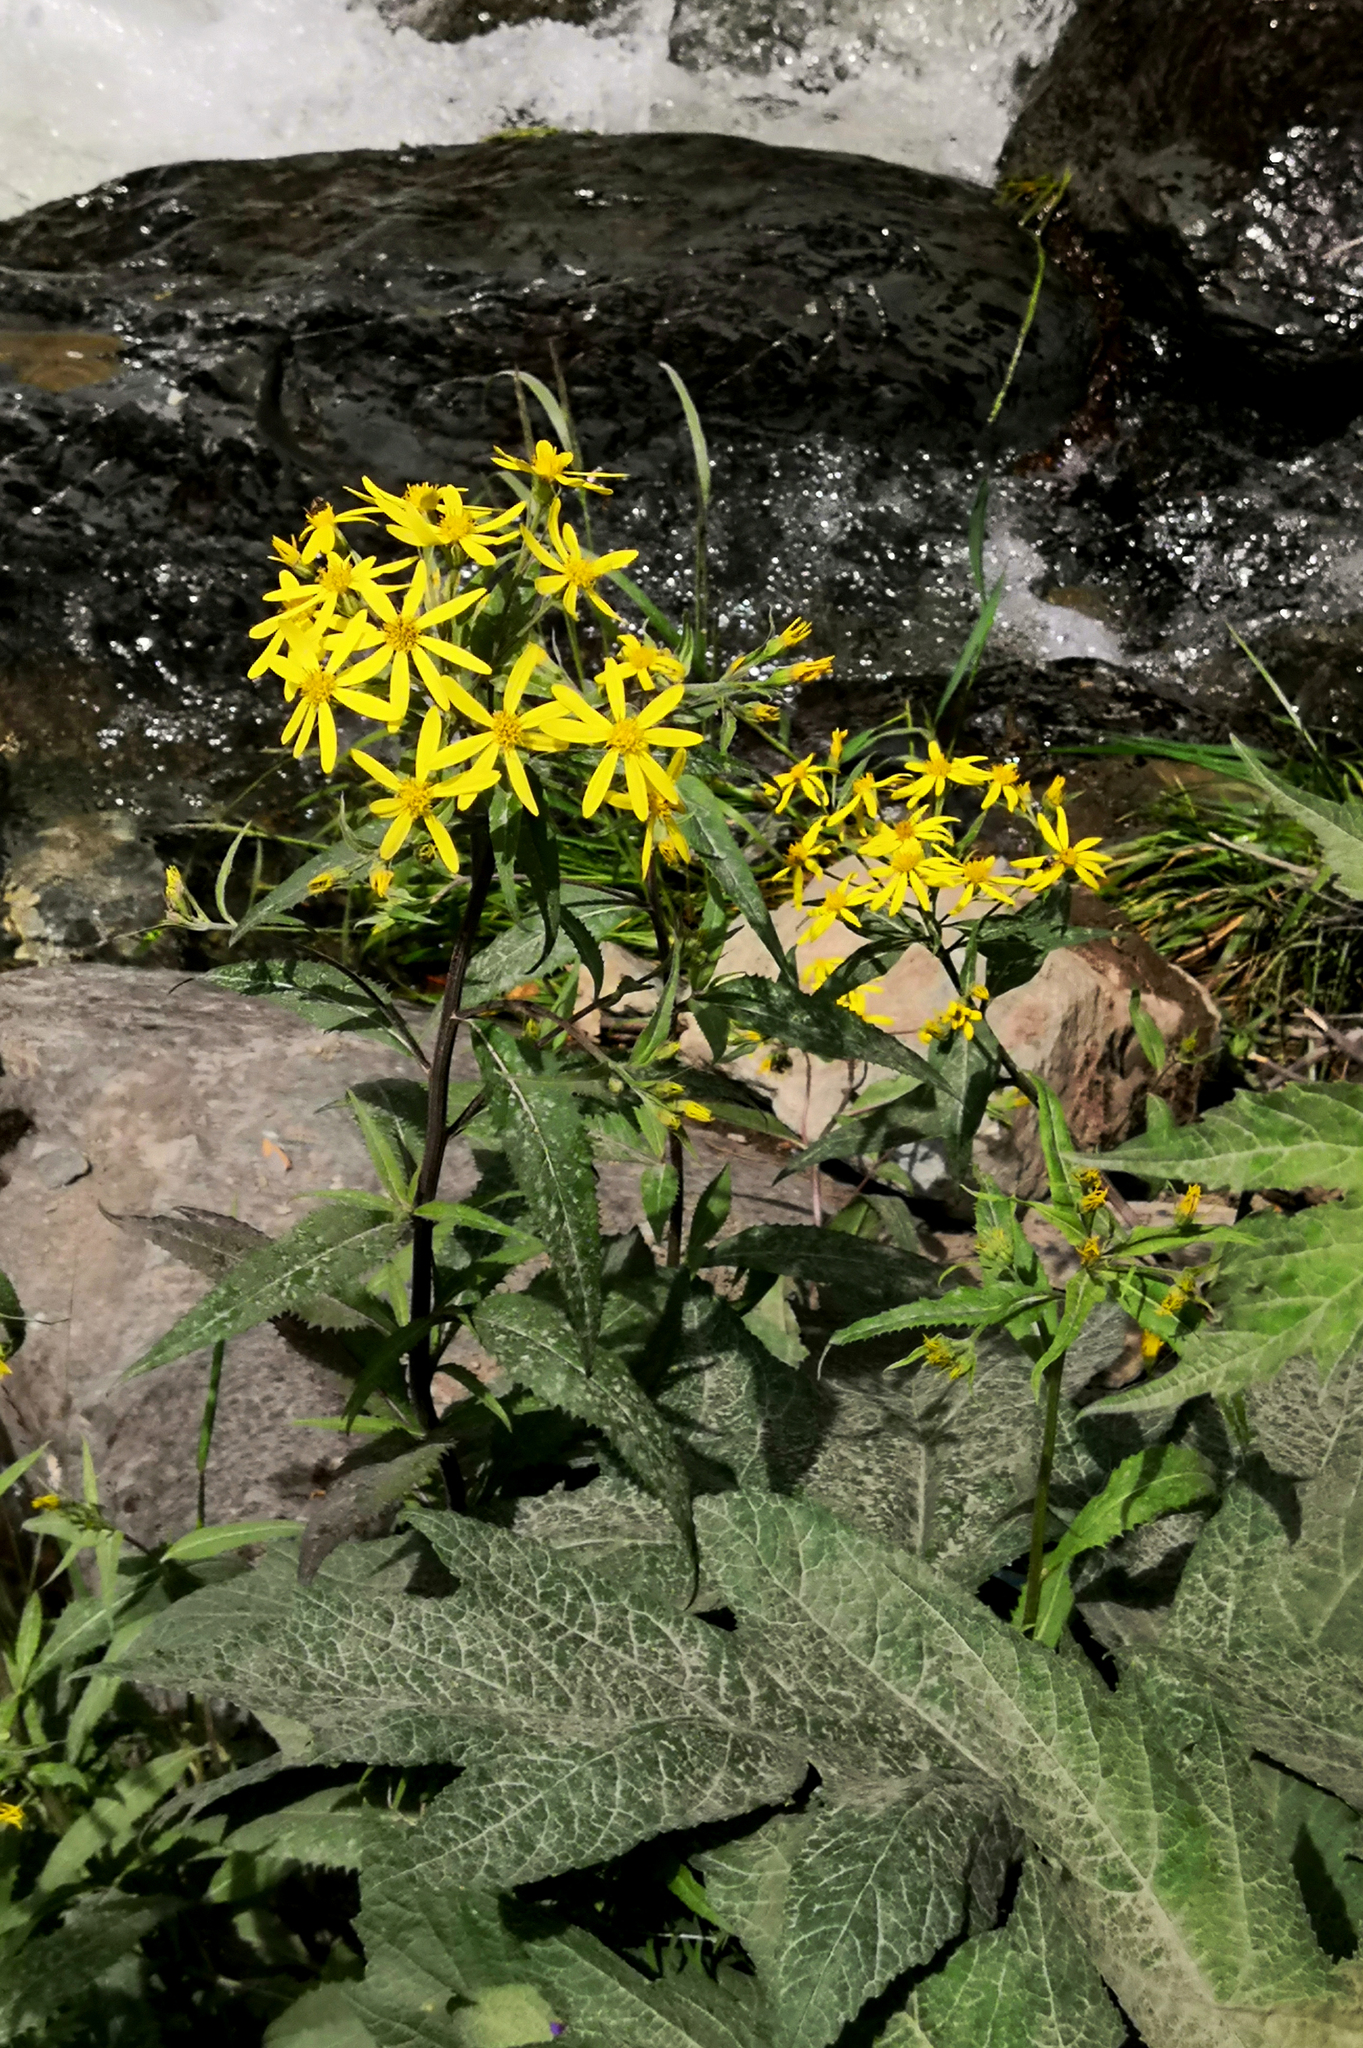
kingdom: Plantae
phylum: Tracheophyta
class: Magnoliopsida
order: Asterales
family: Asteraceae
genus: Senecio
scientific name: Senecio nemorensis
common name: Alpine ragwort
